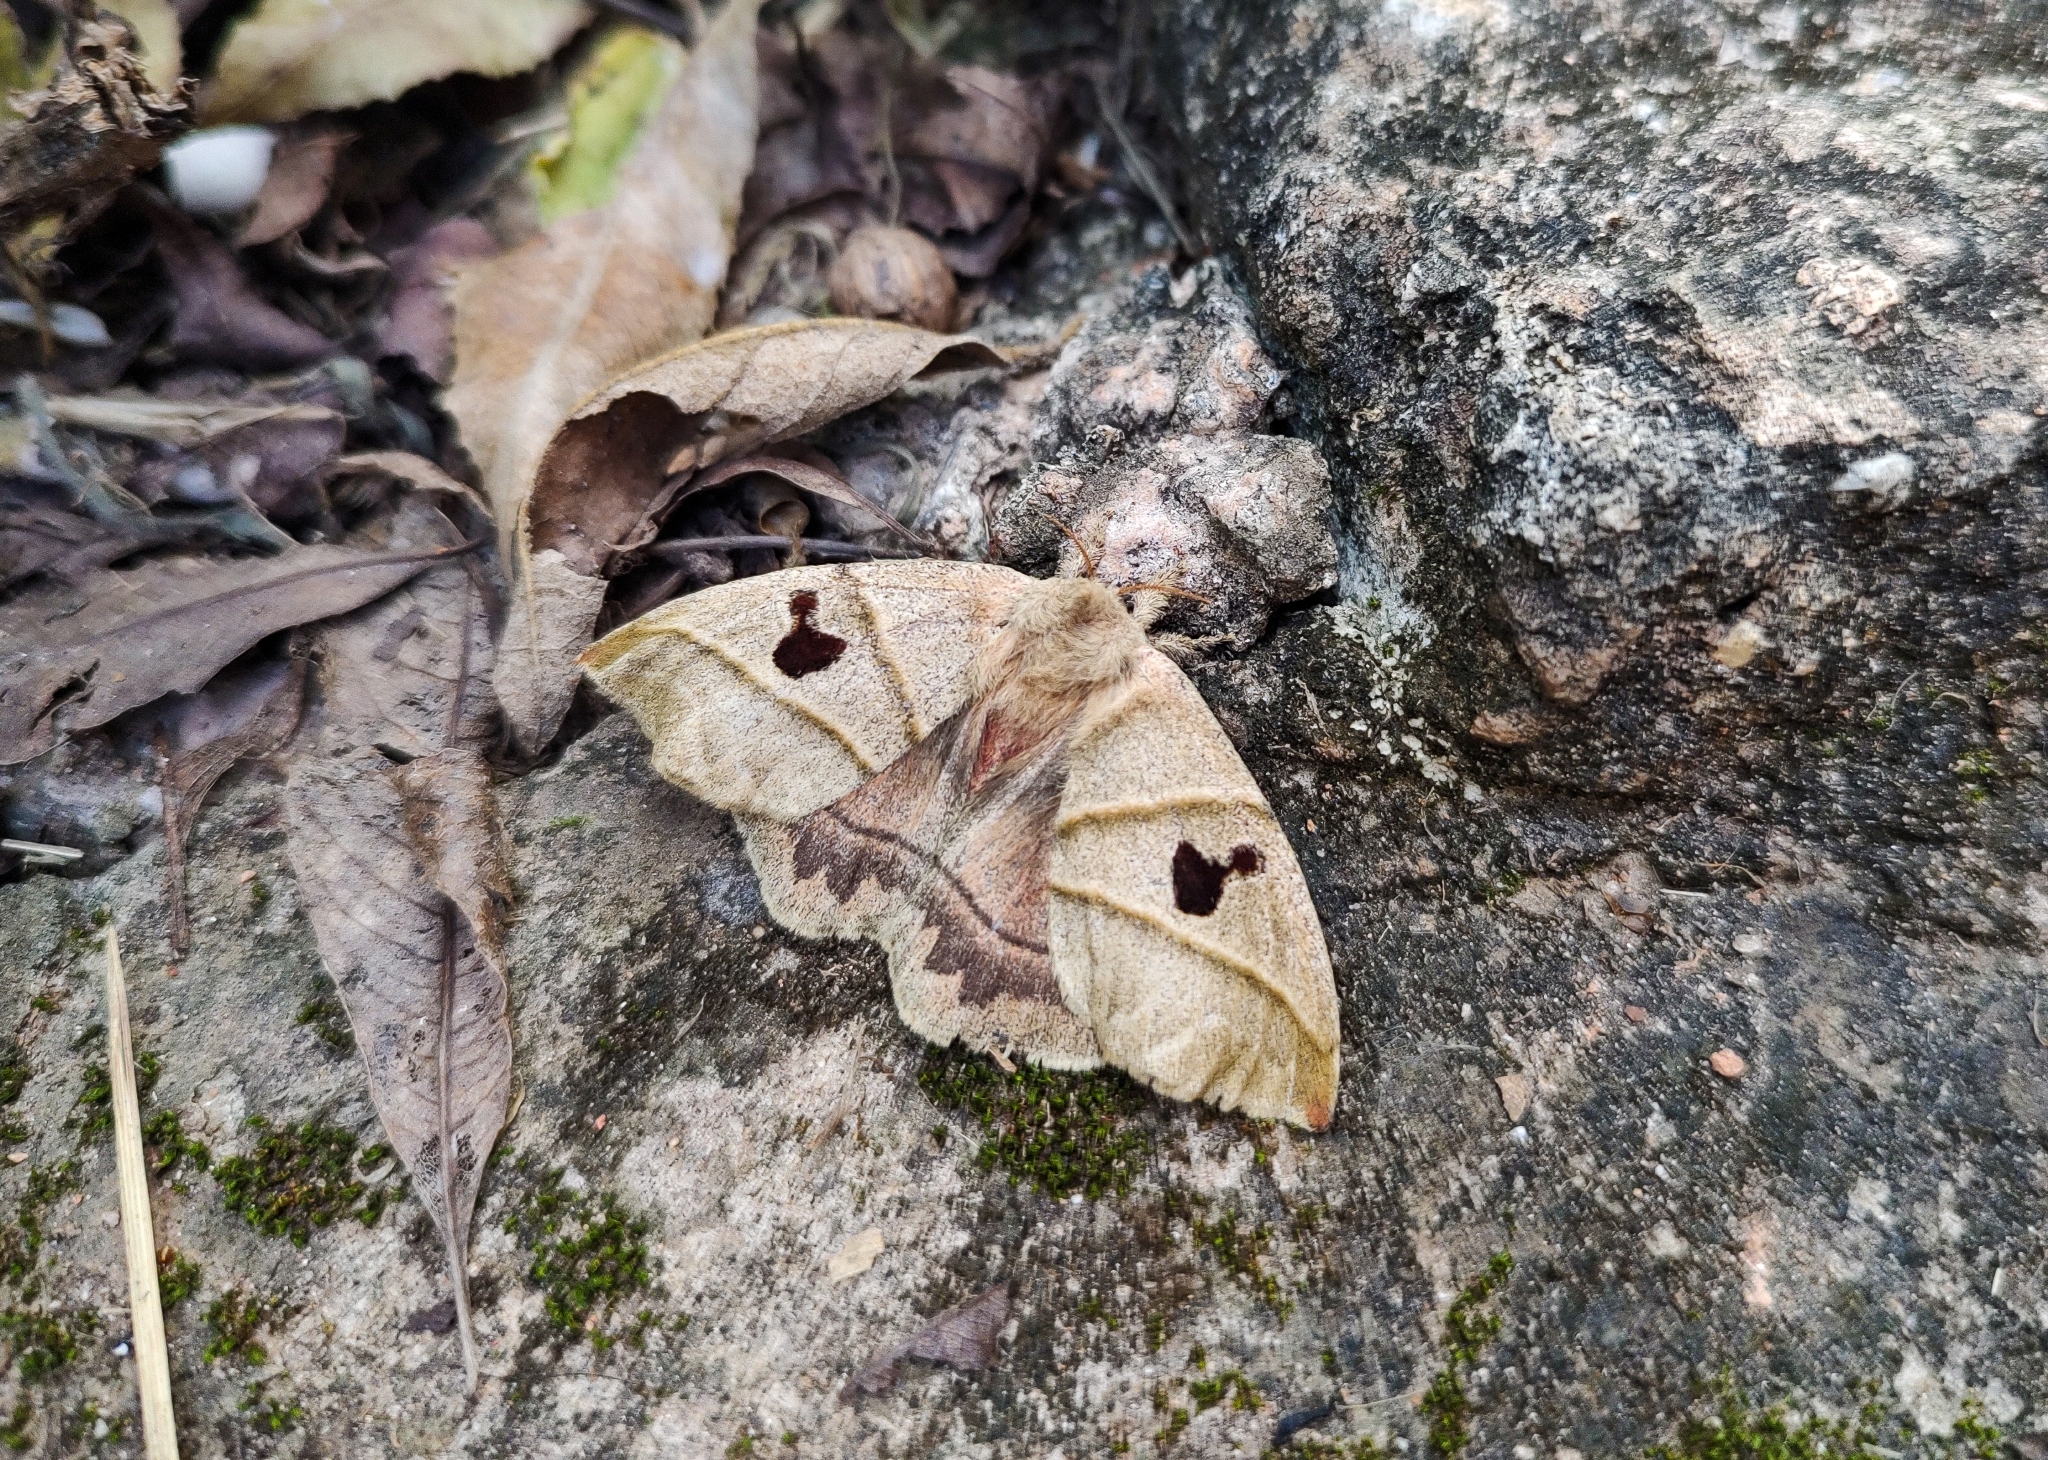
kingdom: Animalia
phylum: Arthropoda
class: Insecta
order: Lepidoptera
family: Saturniidae
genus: Prohylesia
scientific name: Prohylesia friburgensis
